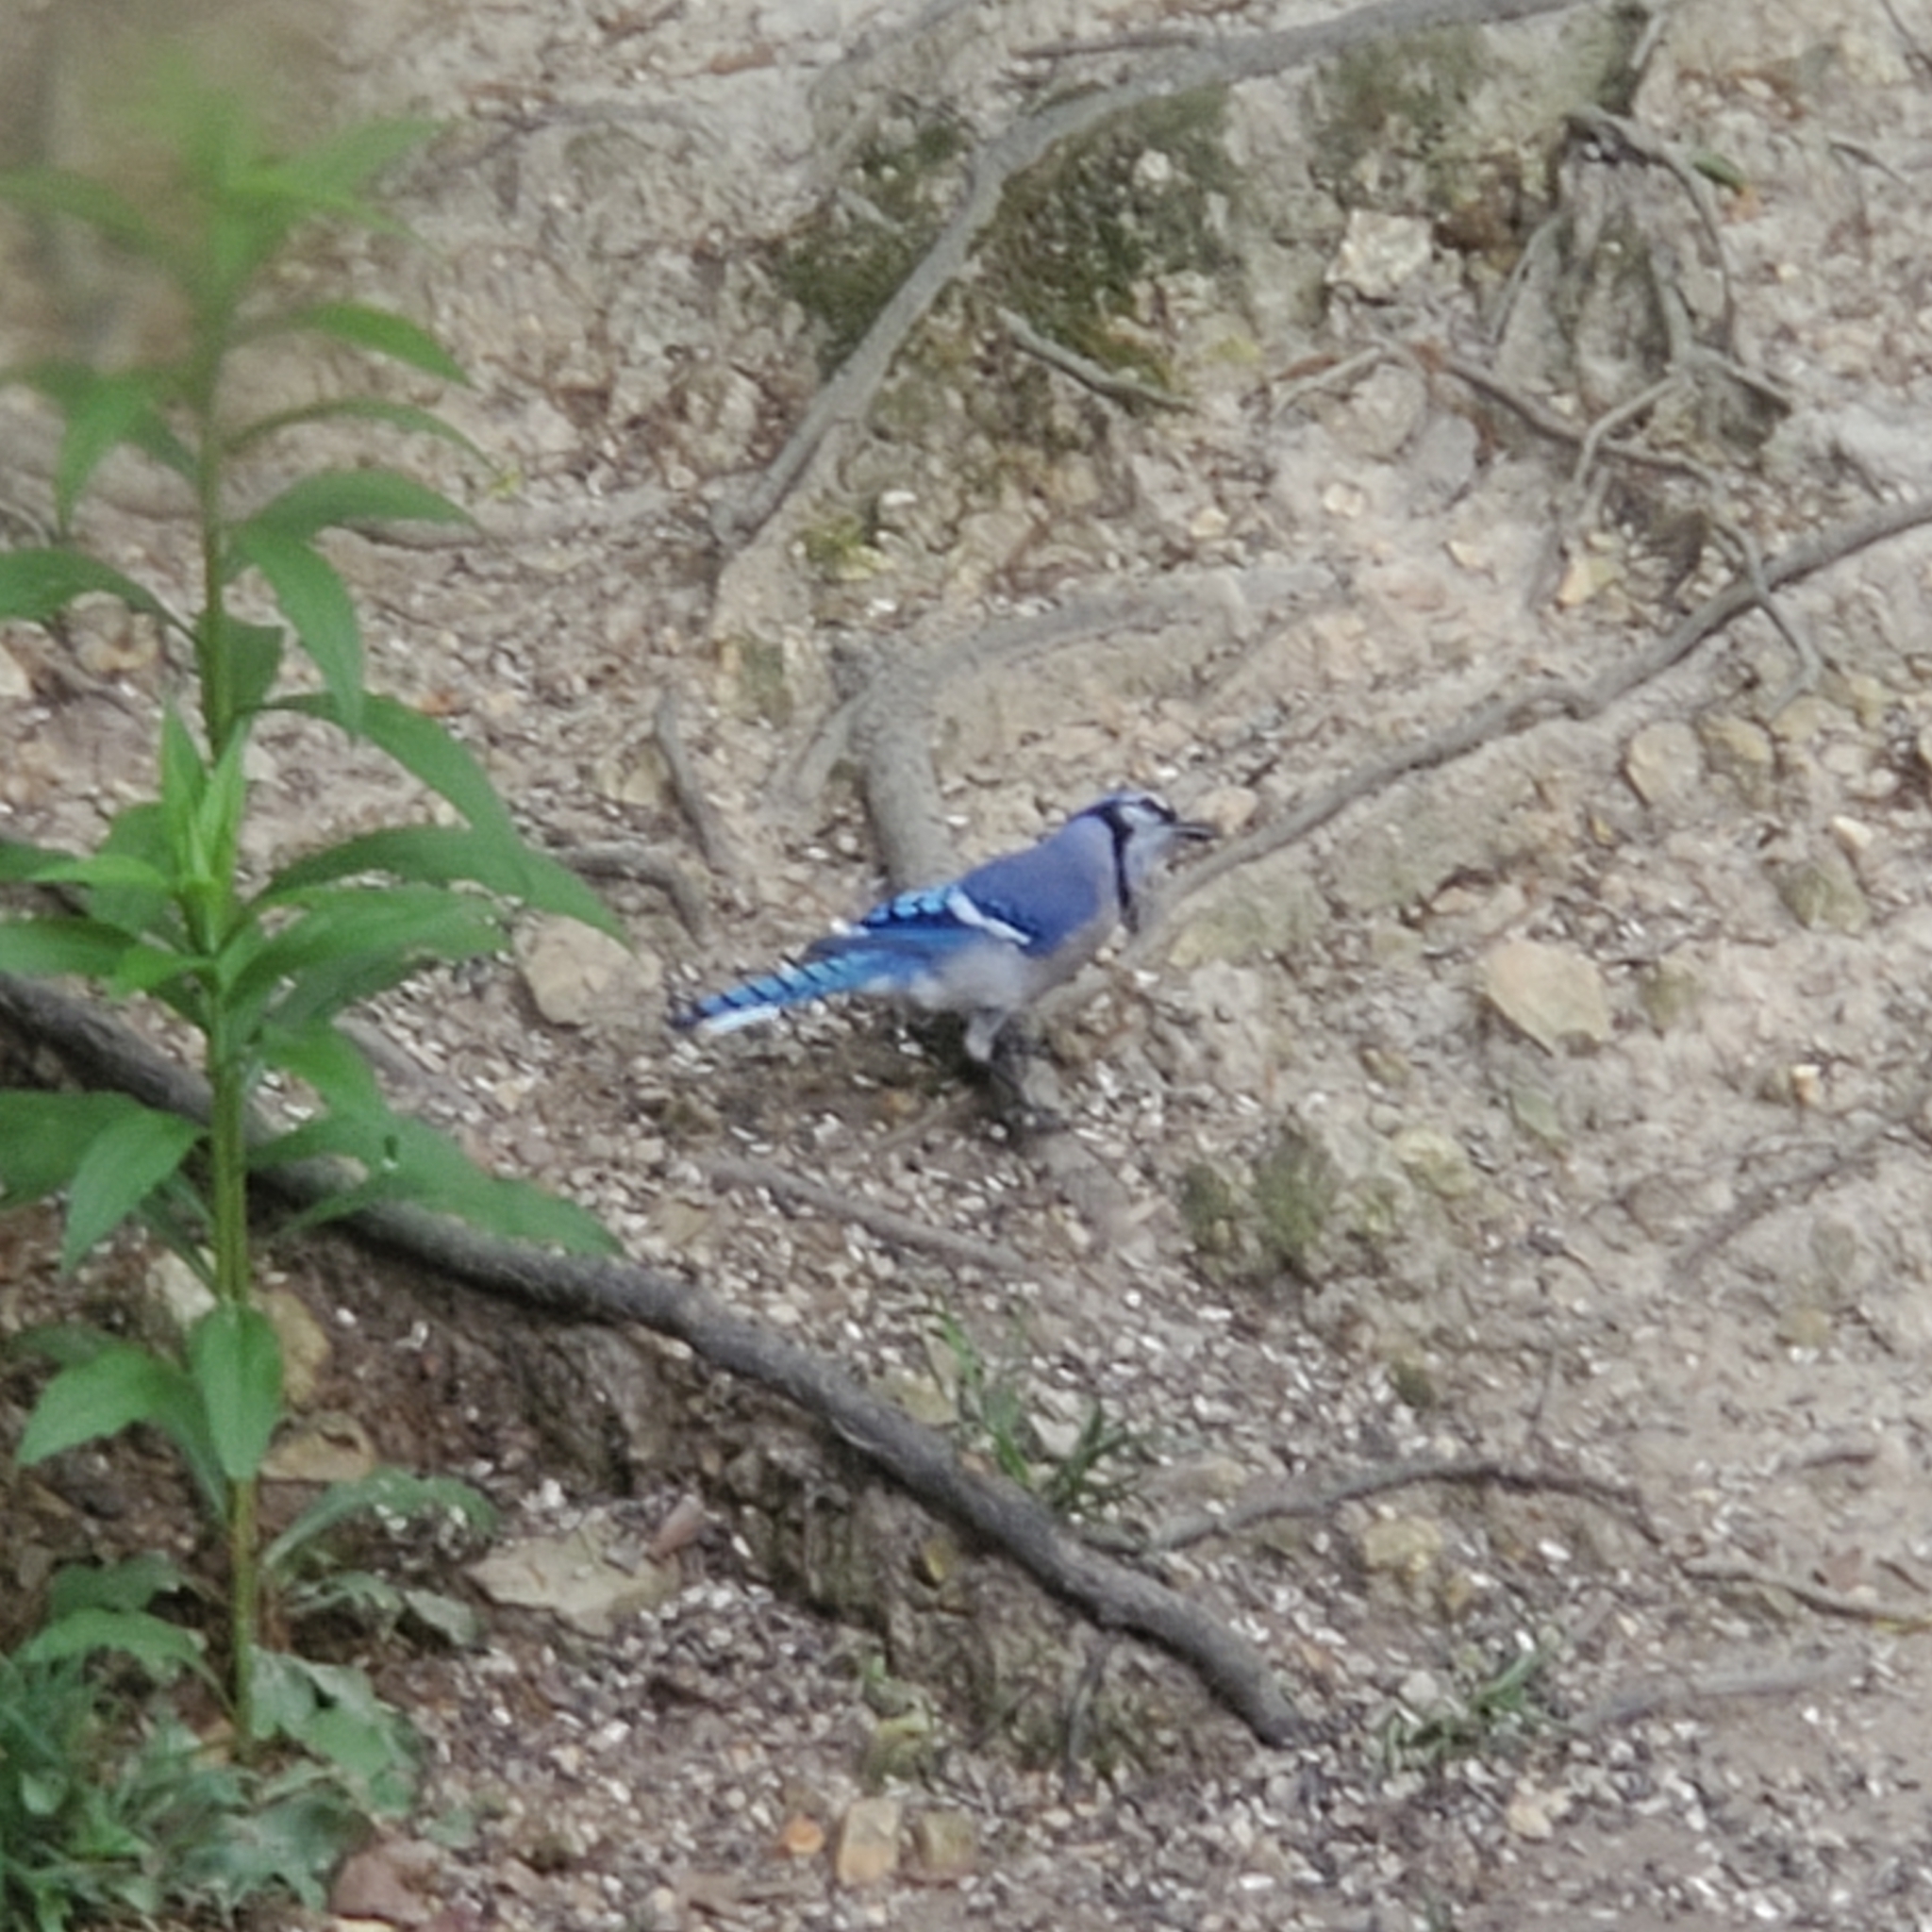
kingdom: Animalia
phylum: Chordata
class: Aves
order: Passeriformes
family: Corvidae
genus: Cyanocitta
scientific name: Cyanocitta cristata
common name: Blue jay
